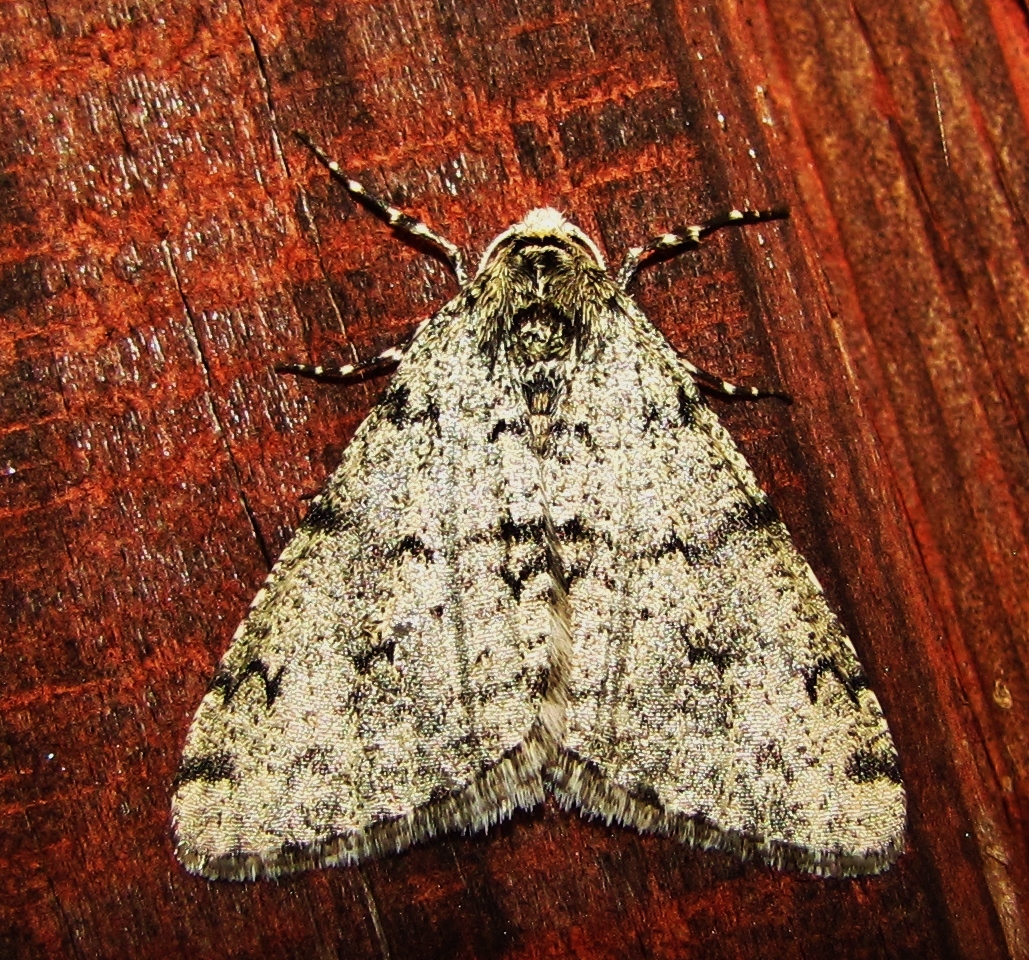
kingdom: Animalia
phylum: Arthropoda
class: Insecta
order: Lepidoptera
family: Geometridae
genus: Phigalia
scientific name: Phigalia strigataria
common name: Small phigalia
